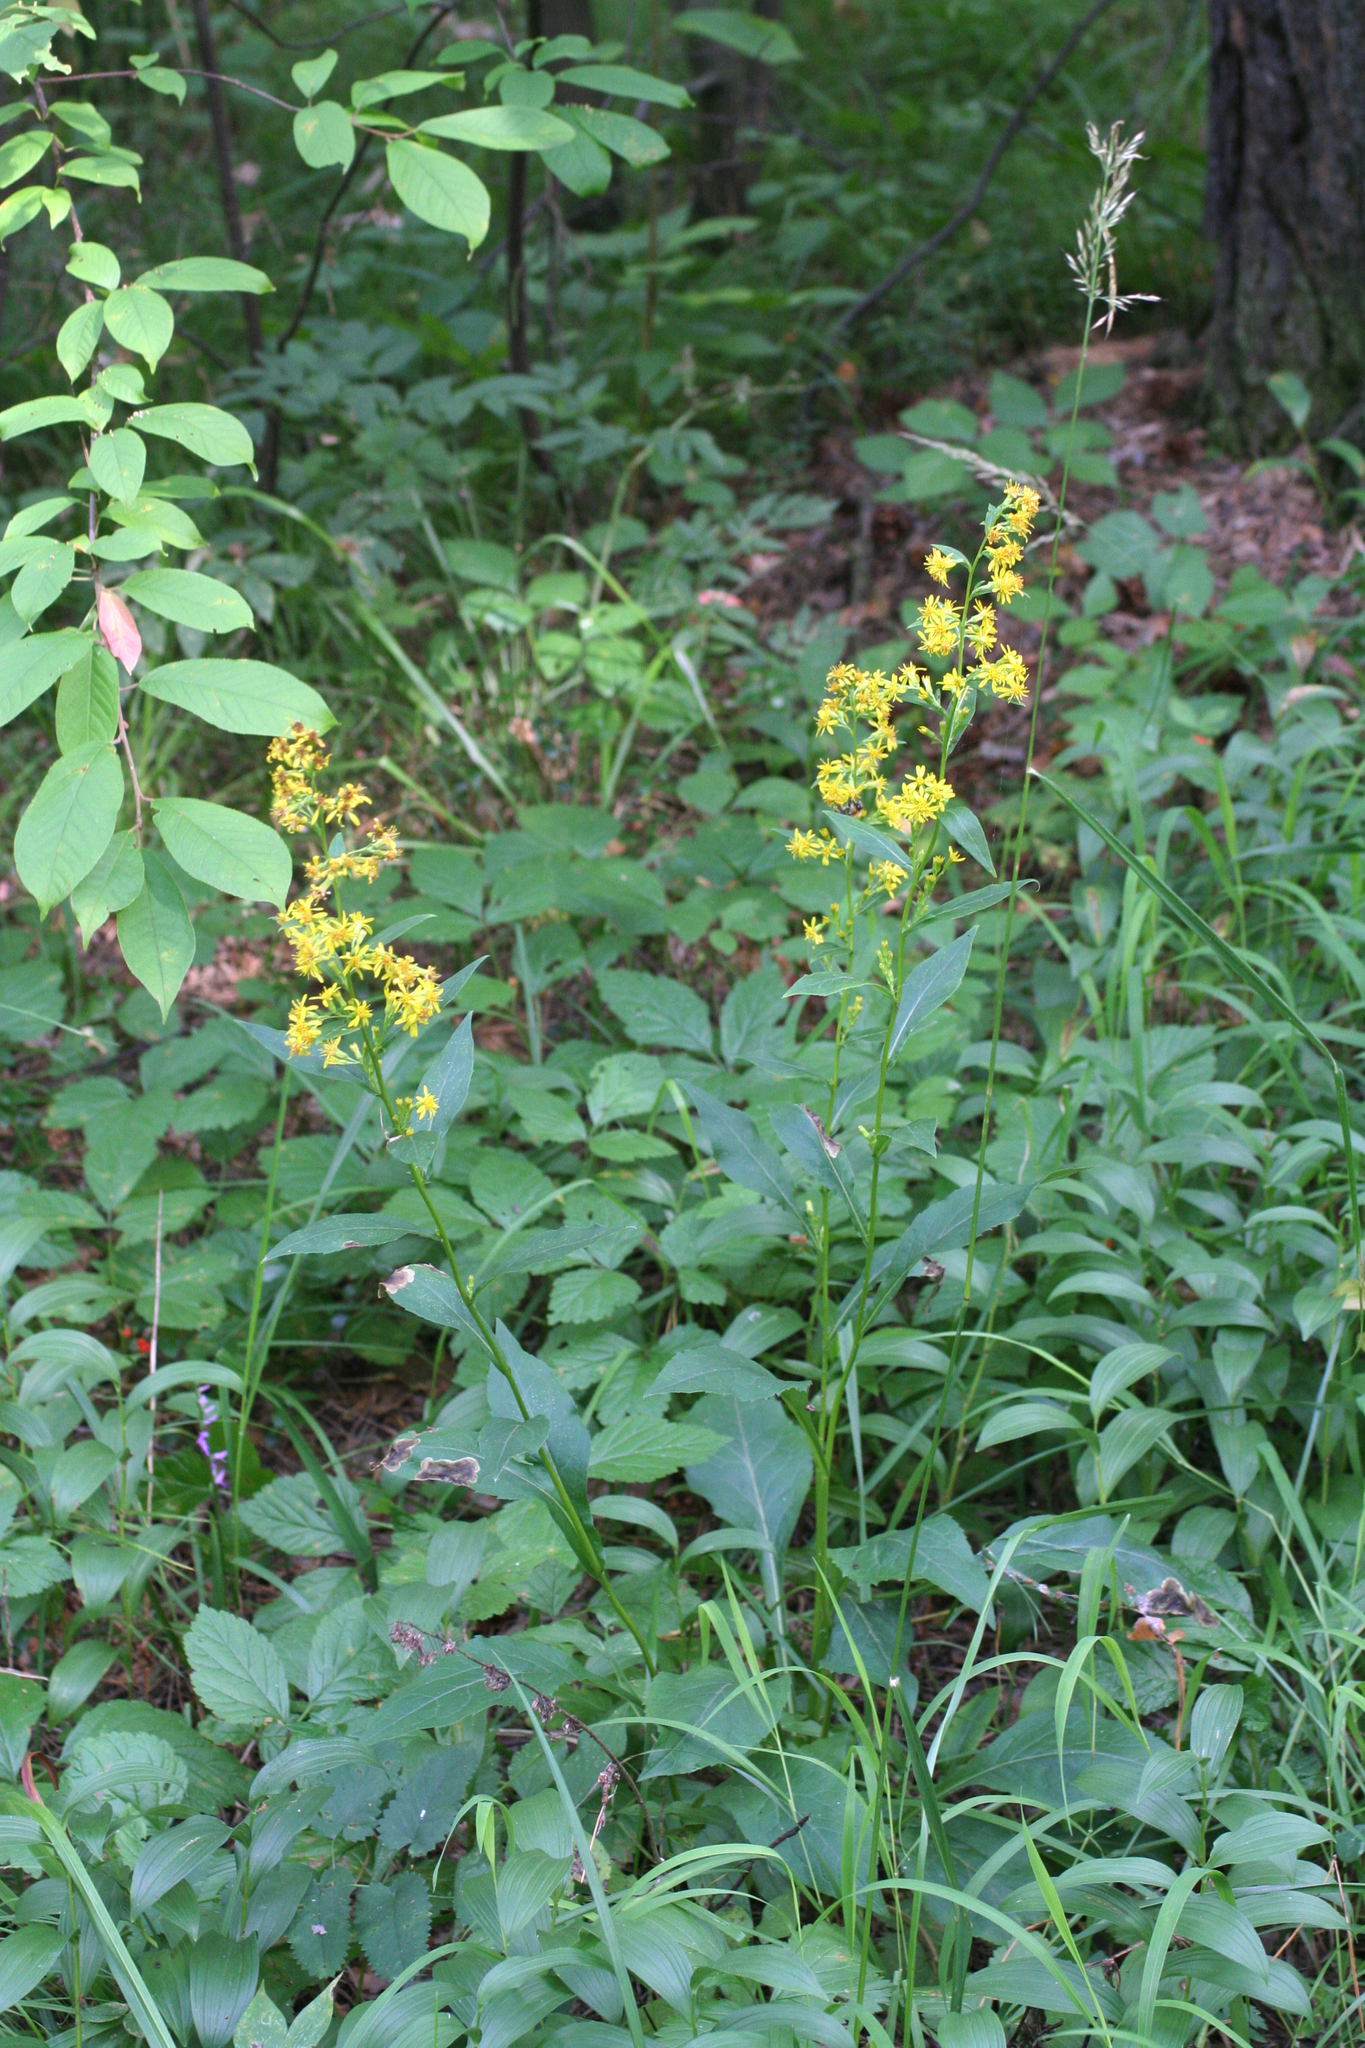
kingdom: Plantae
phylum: Tracheophyta
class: Magnoliopsida
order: Asterales
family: Asteraceae
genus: Solidago
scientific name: Solidago virgaurea
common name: Goldenrod
